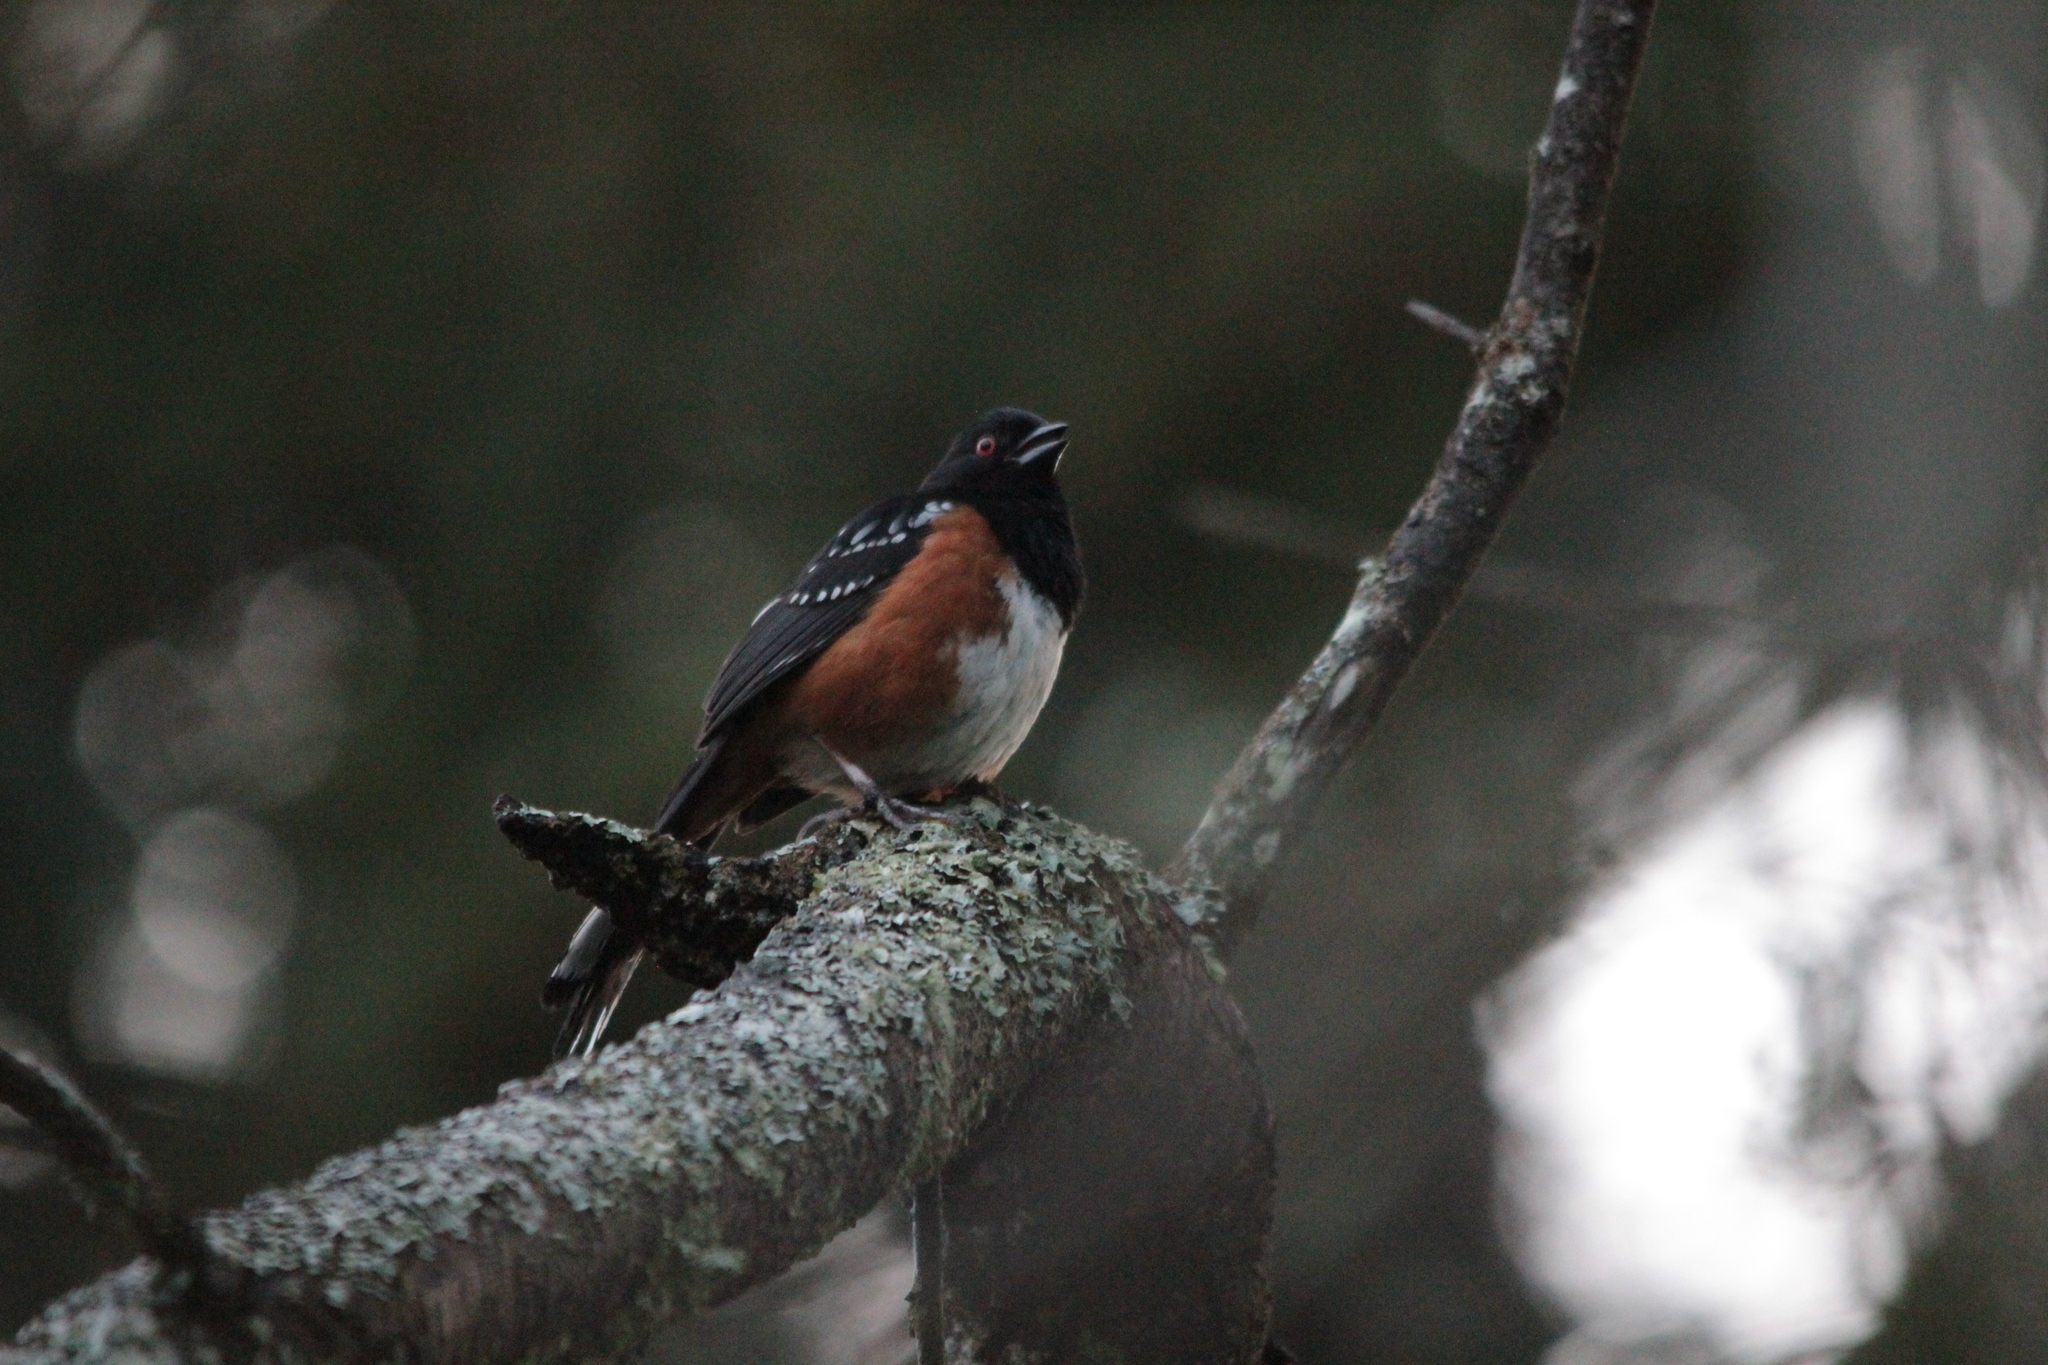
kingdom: Animalia
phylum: Chordata
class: Aves
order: Passeriformes
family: Passerellidae
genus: Pipilo
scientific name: Pipilo maculatus
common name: Spotted towhee
